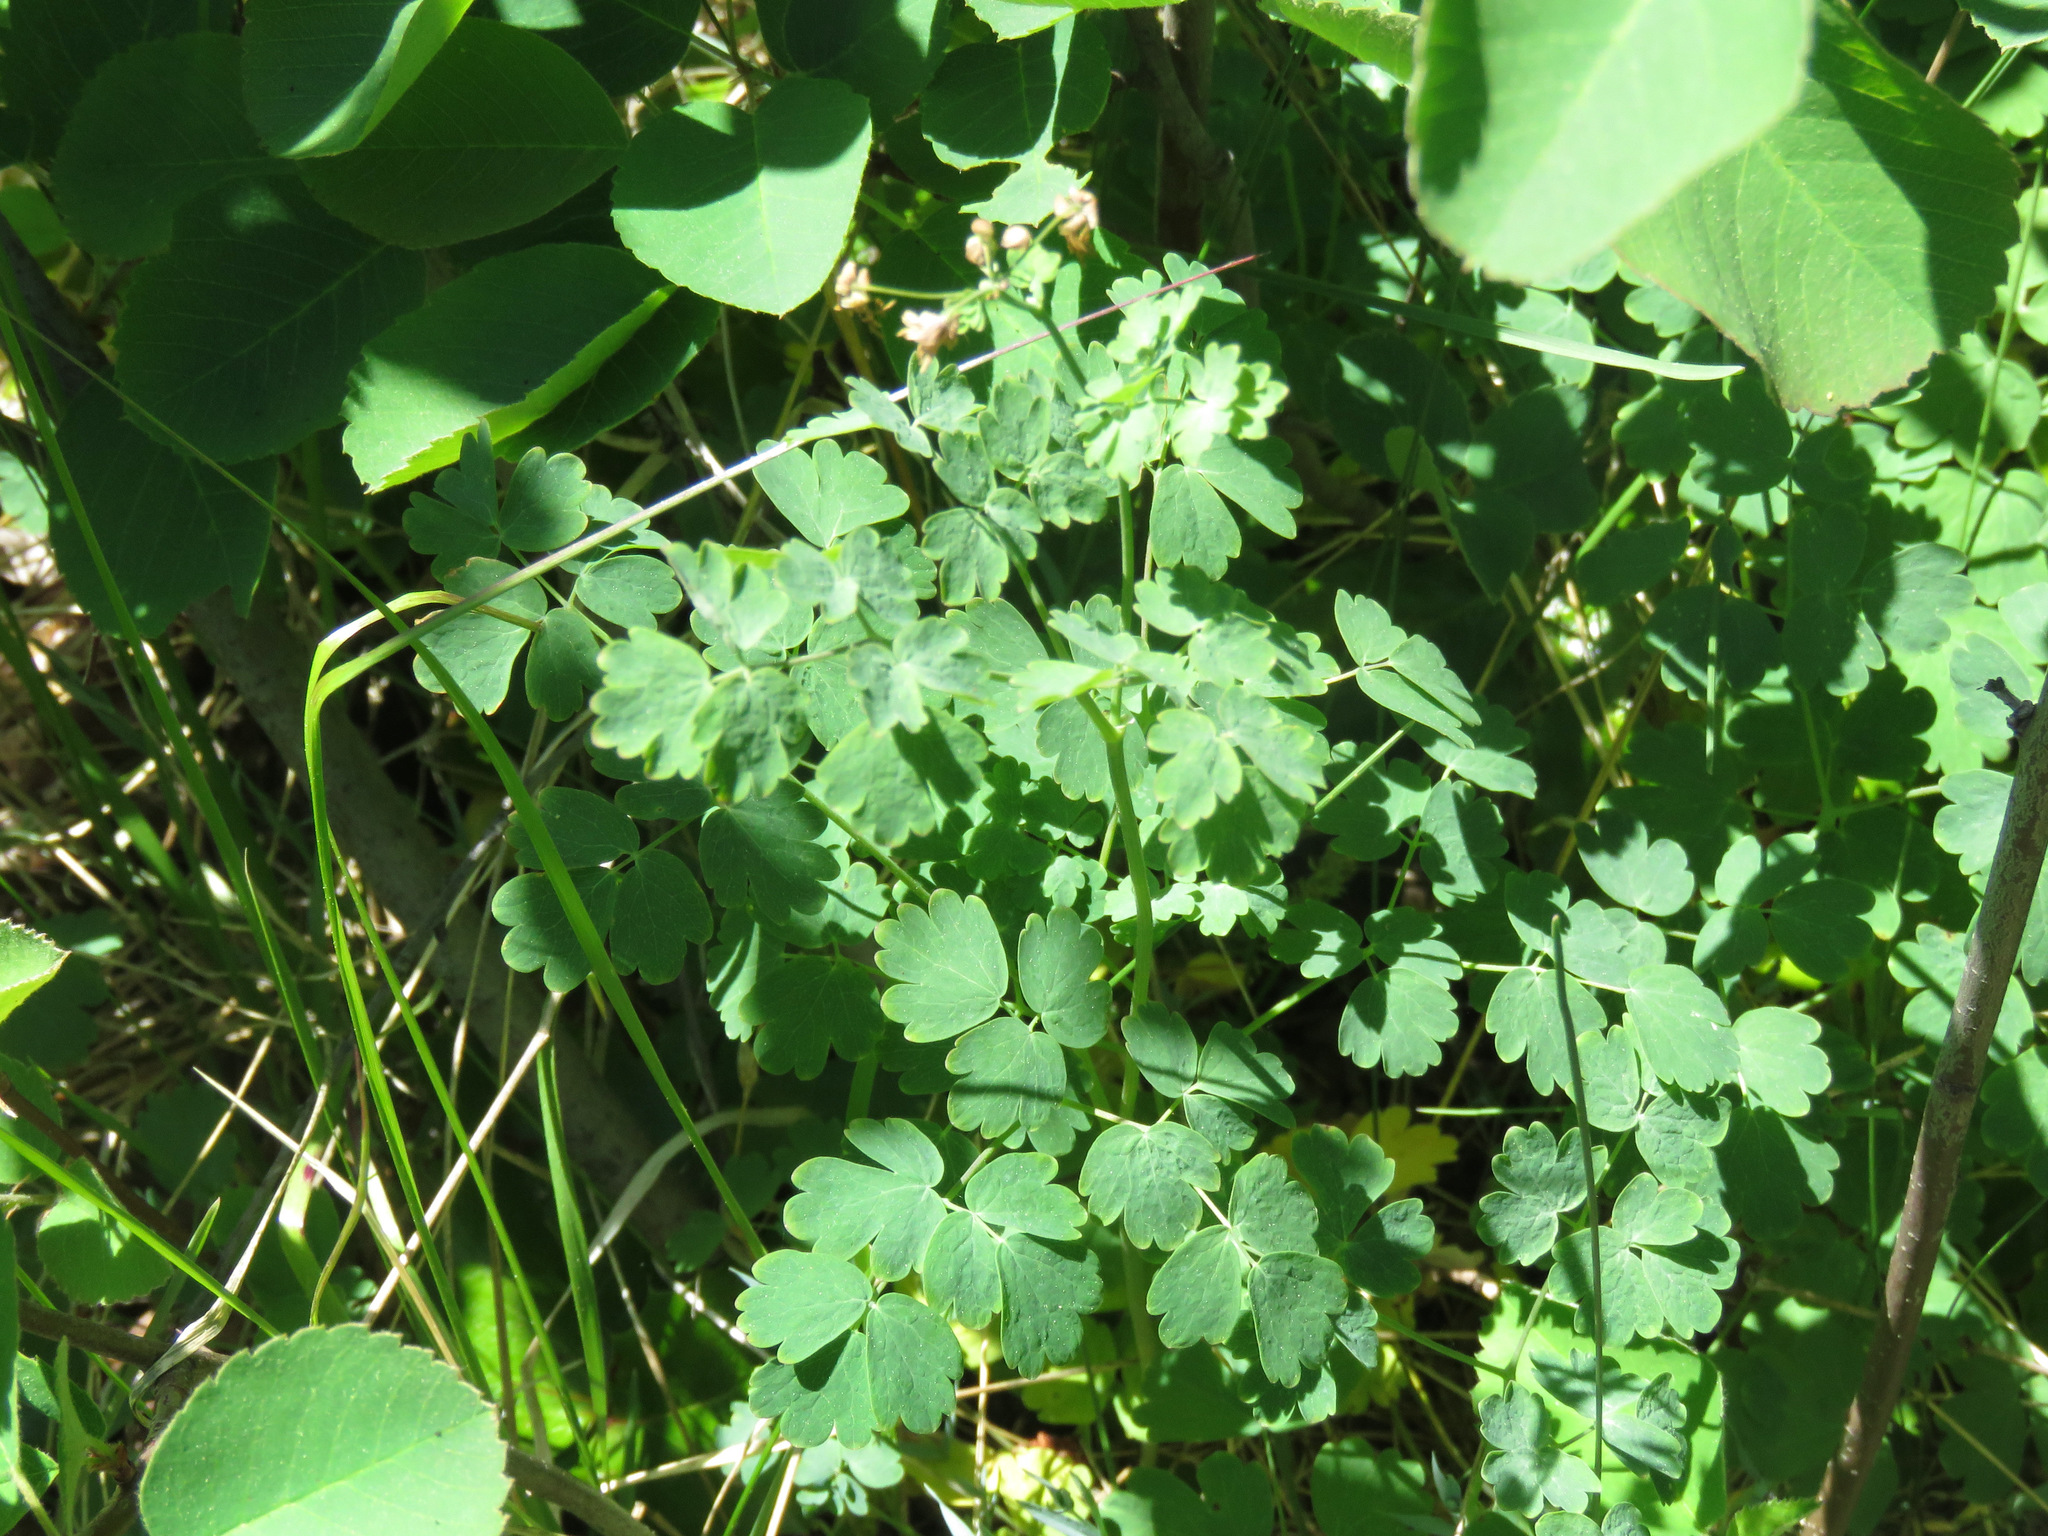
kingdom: Plantae
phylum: Tracheophyta
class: Magnoliopsida
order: Ranunculales
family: Ranunculaceae
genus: Thalictrum
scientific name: Thalictrum occidentale
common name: Western meadow-rue
